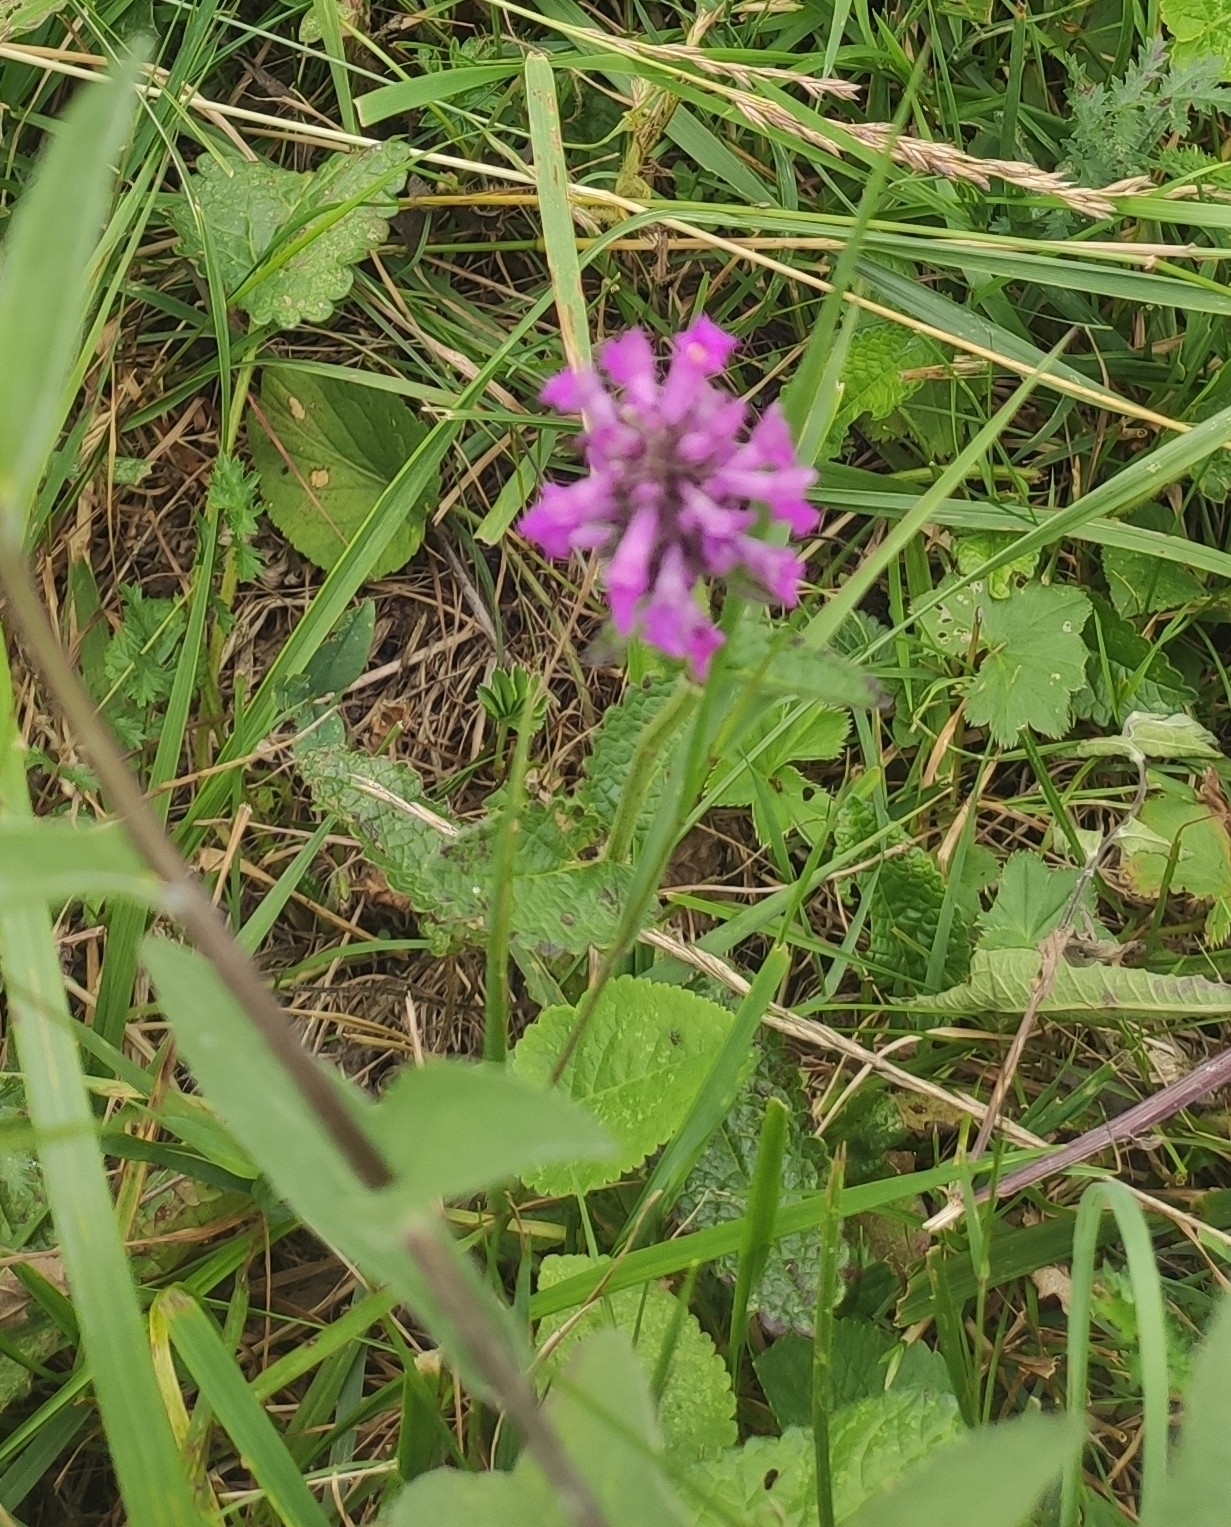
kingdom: Plantae
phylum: Tracheophyta
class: Magnoliopsida
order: Lamiales
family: Lamiaceae
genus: Betonica
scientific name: Betonica officinalis
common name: Bishop's-wort
